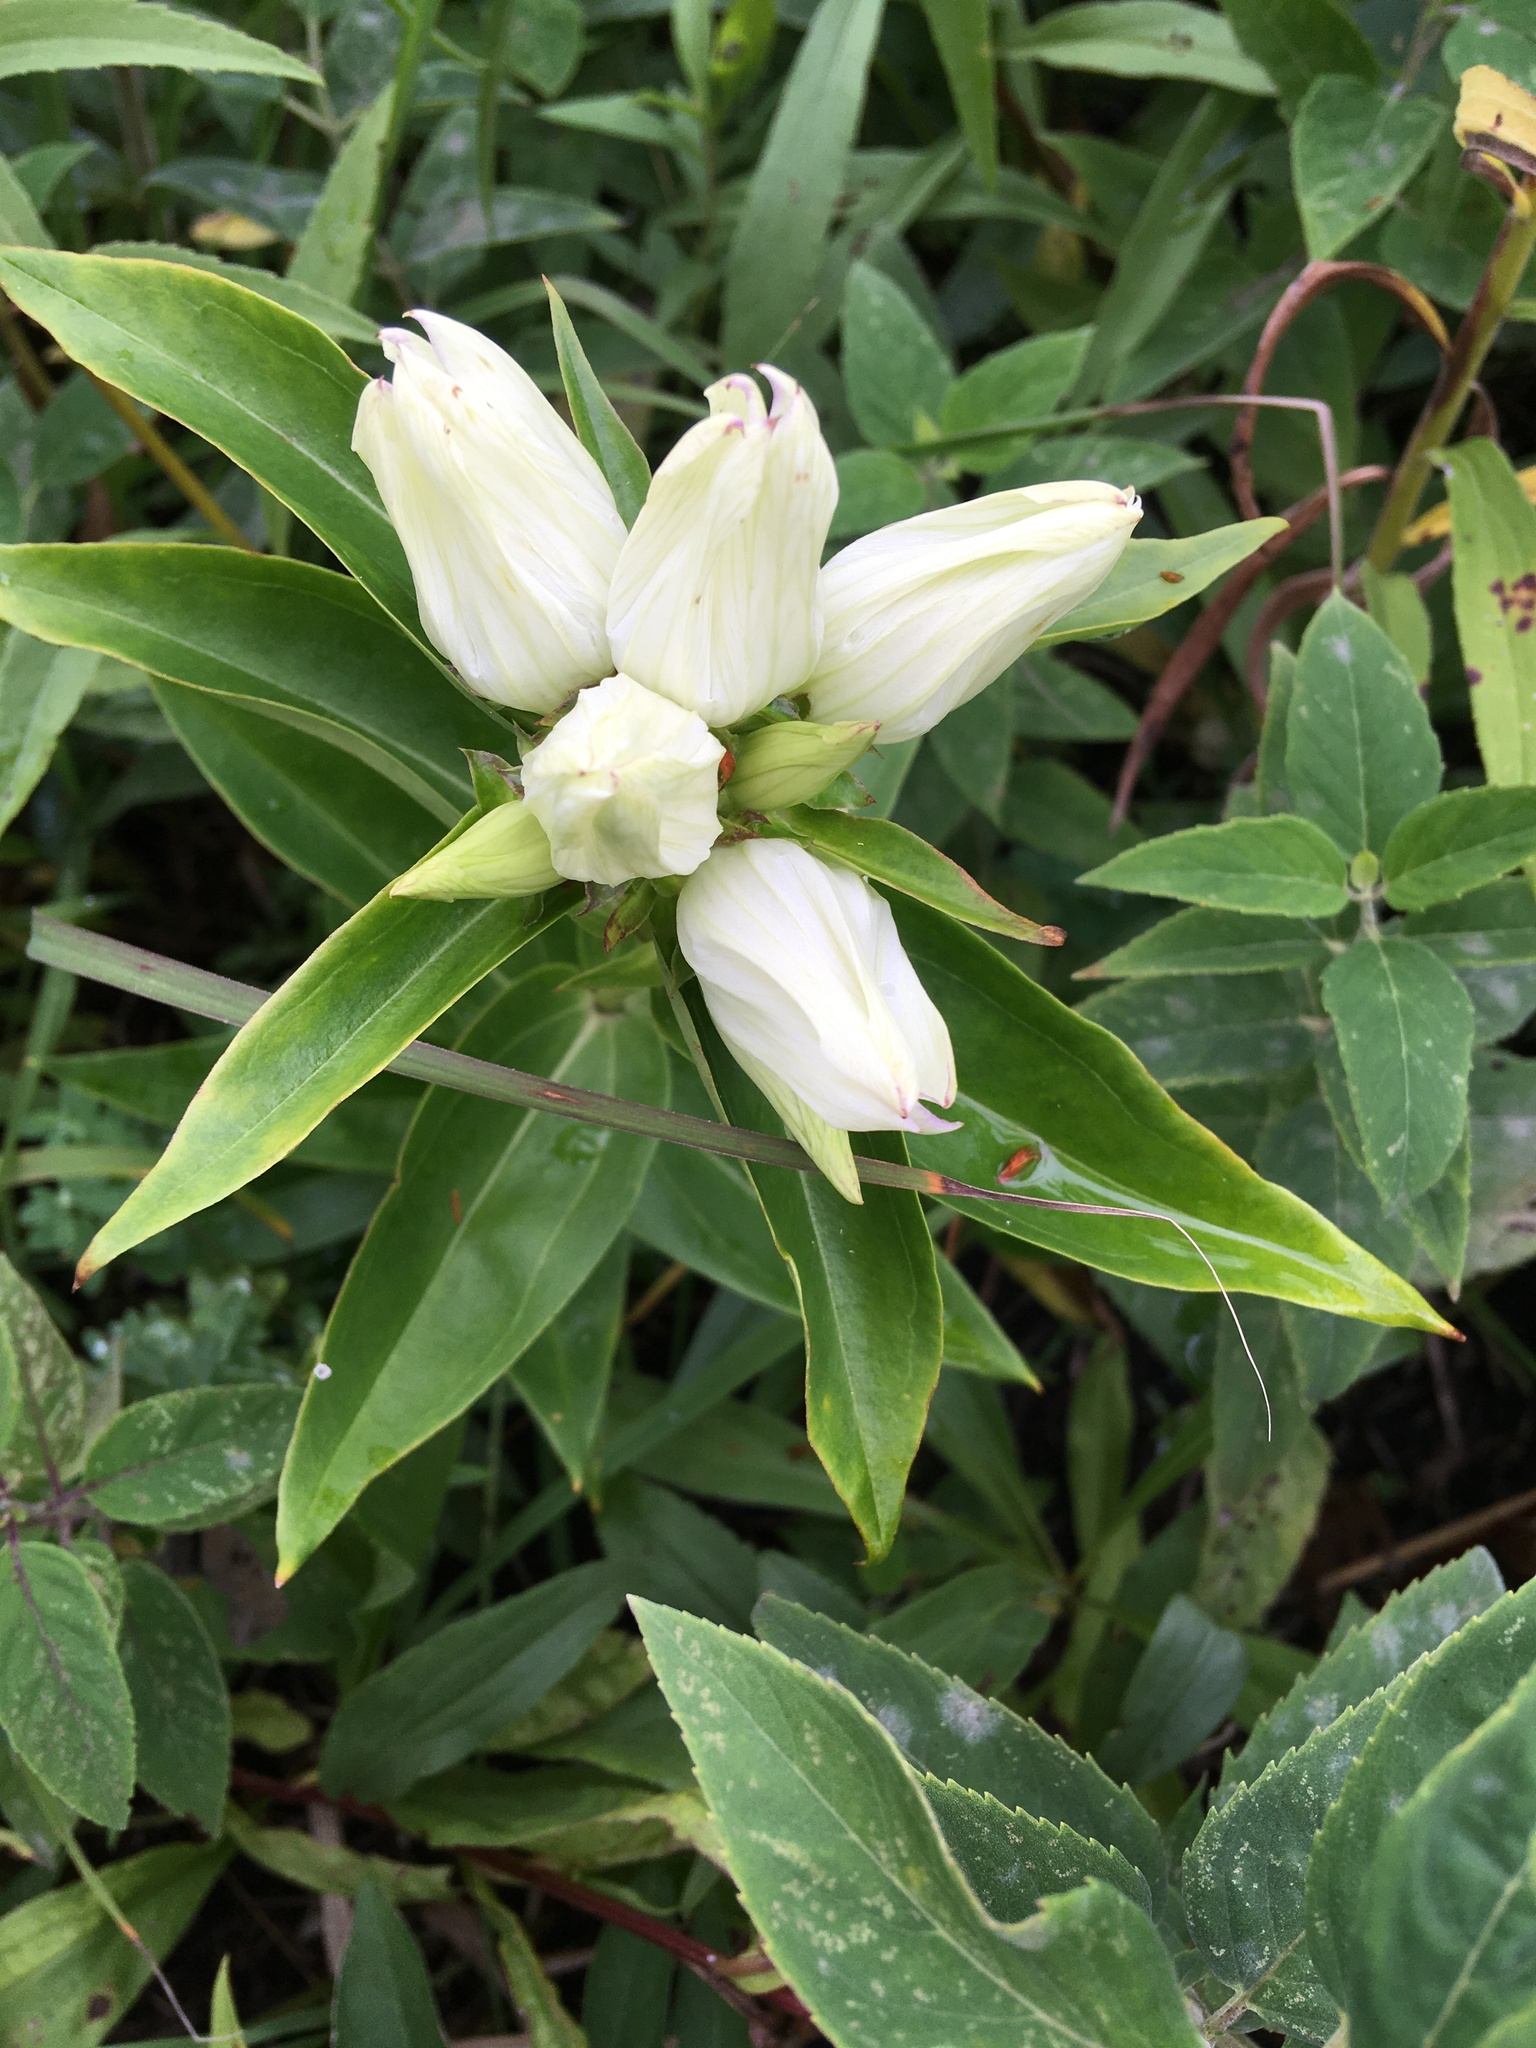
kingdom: Plantae
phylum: Tracheophyta
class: Magnoliopsida
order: Gentianales
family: Gentianaceae
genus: Gentiana
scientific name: Gentiana alba
